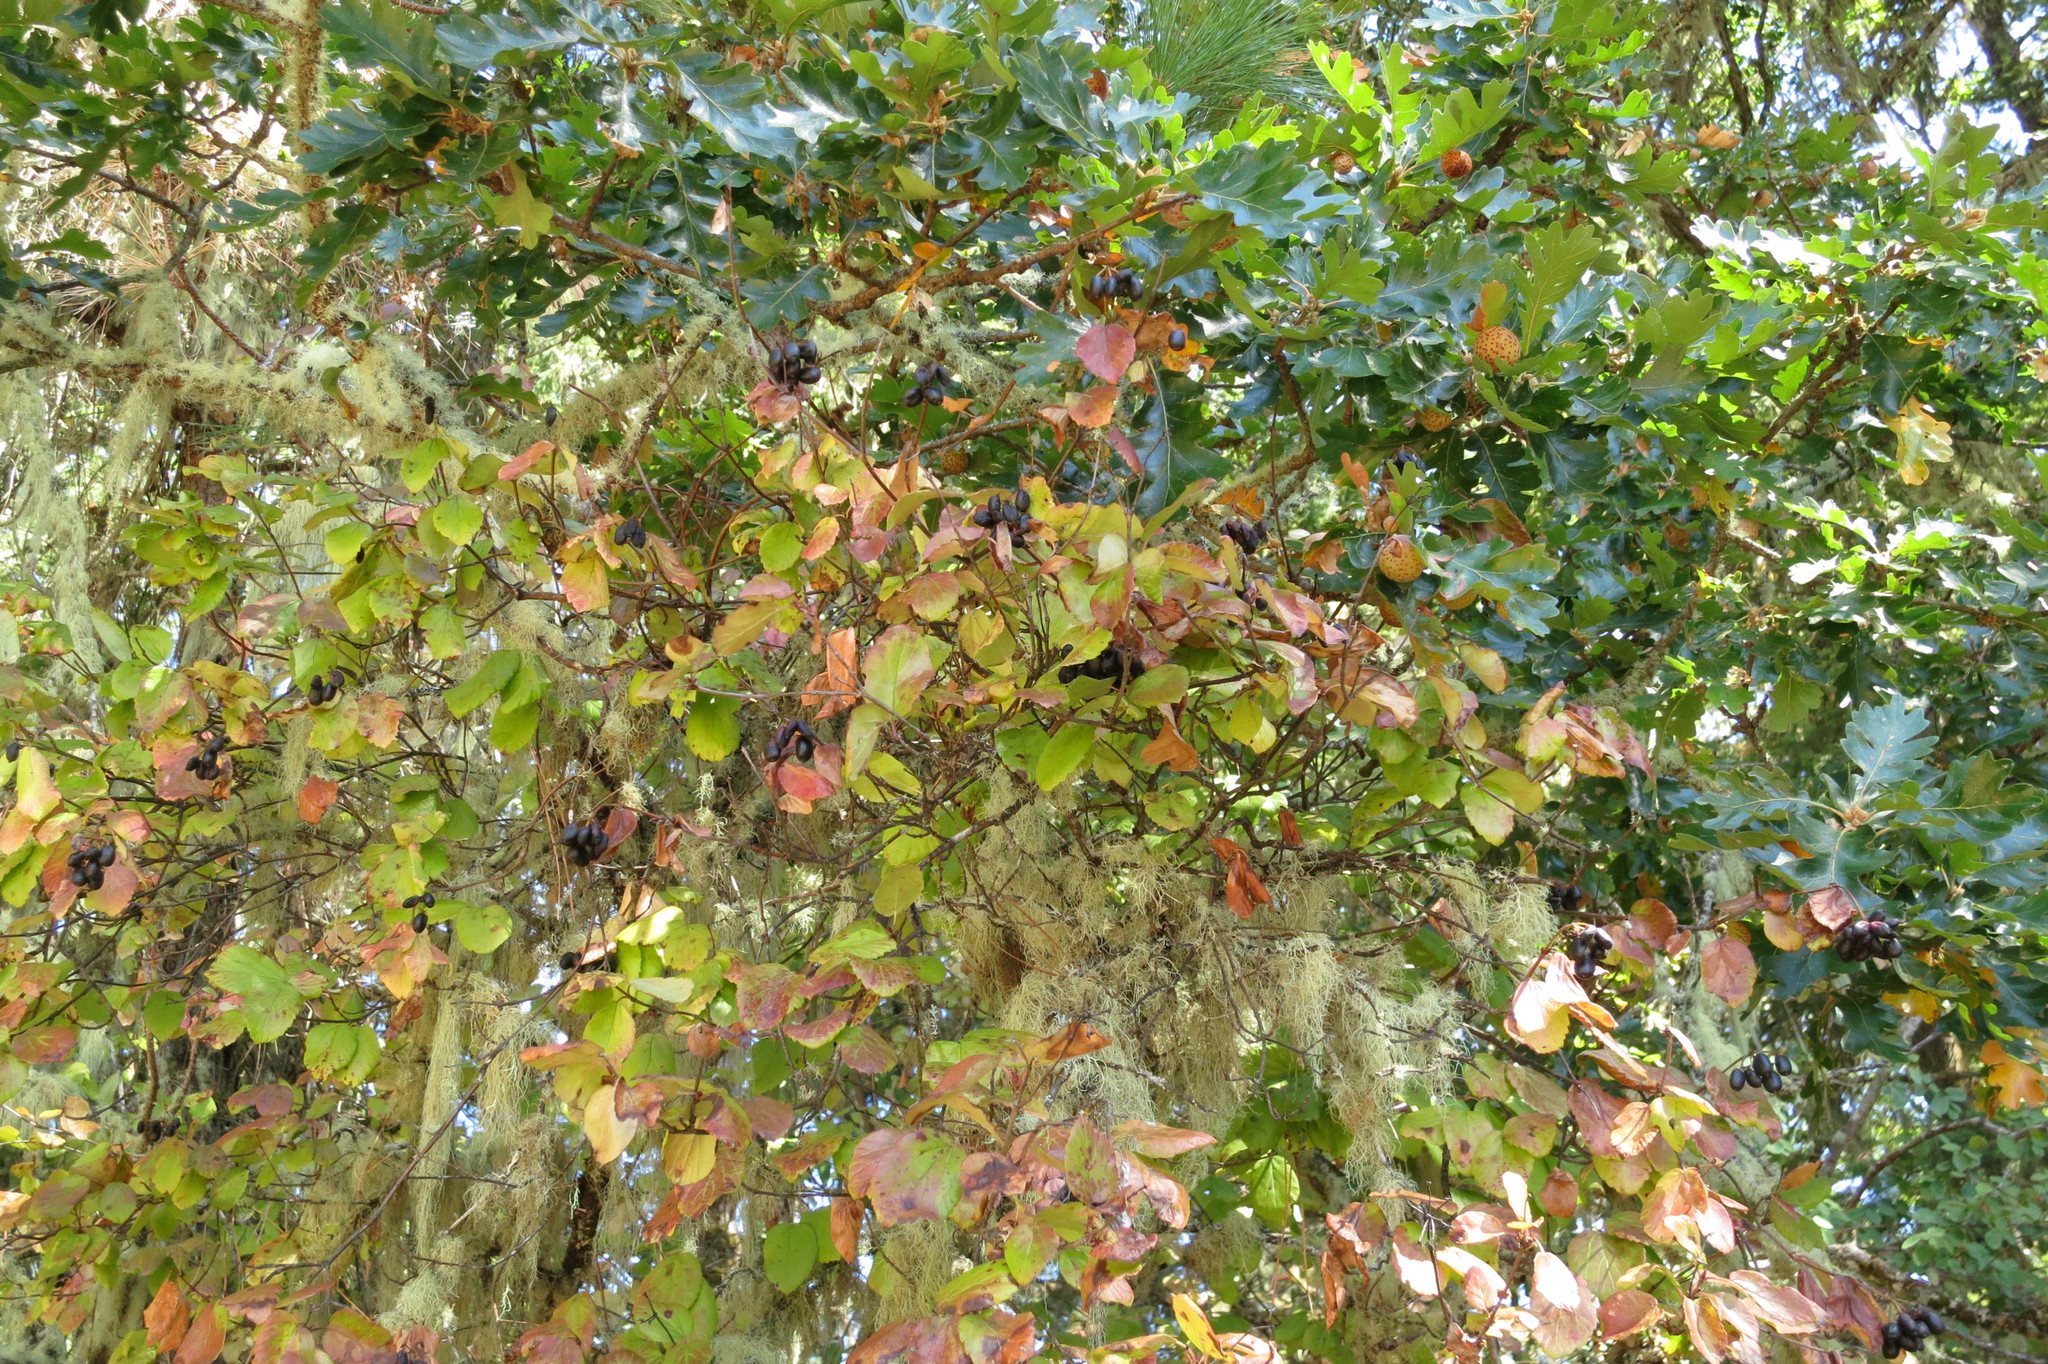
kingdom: Plantae
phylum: Tracheophyta
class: Magnoliopsida
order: Dipsacales
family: Viburnaceae
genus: Viburnum
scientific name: Viburnum ellipticum
